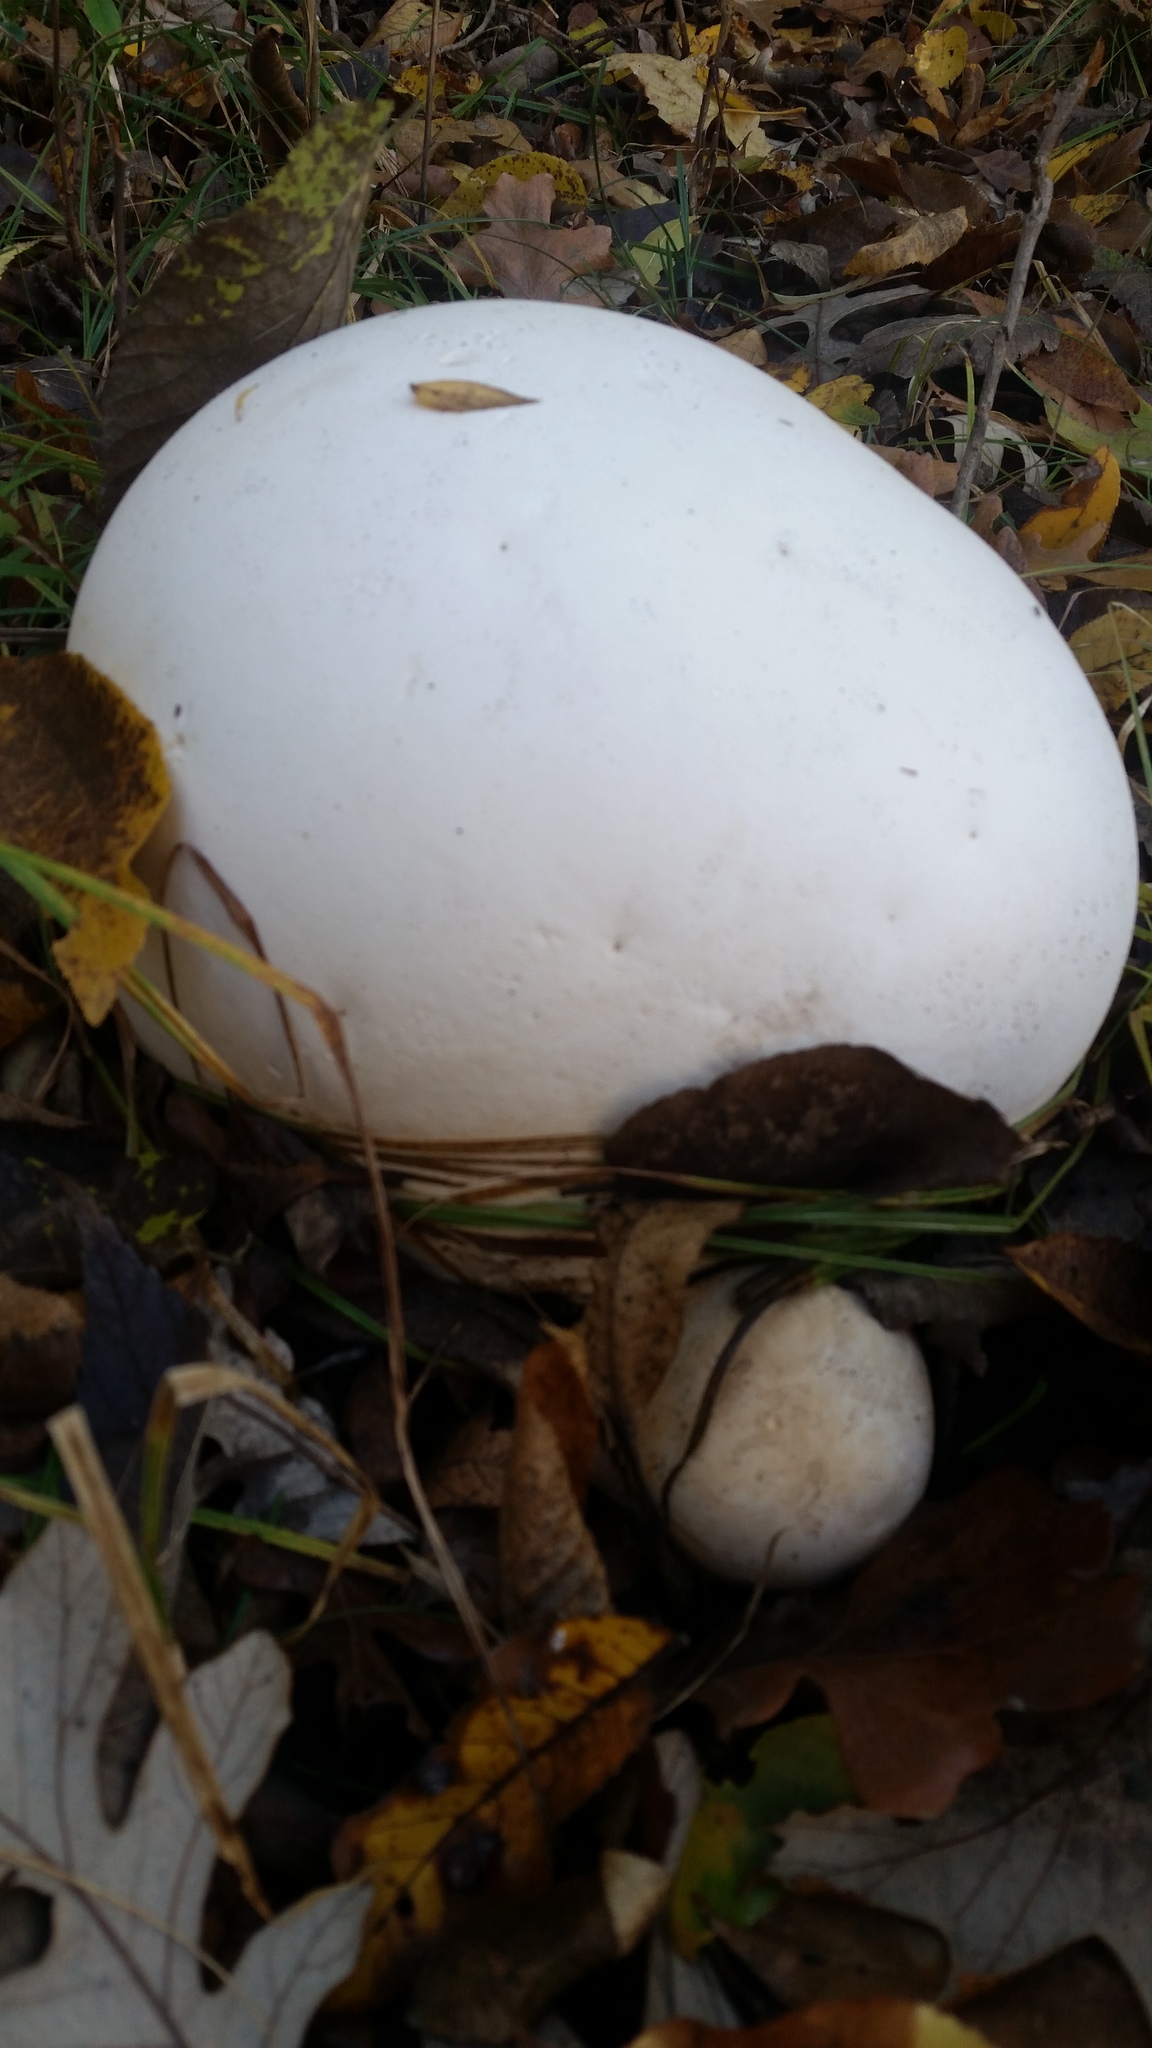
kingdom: Fungi
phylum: Basidiomycota
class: Agaricomycetes
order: Agaricales
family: Lycoperdaceae
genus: Calvatia
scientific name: Calvatia gigantea
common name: Giant puffball
